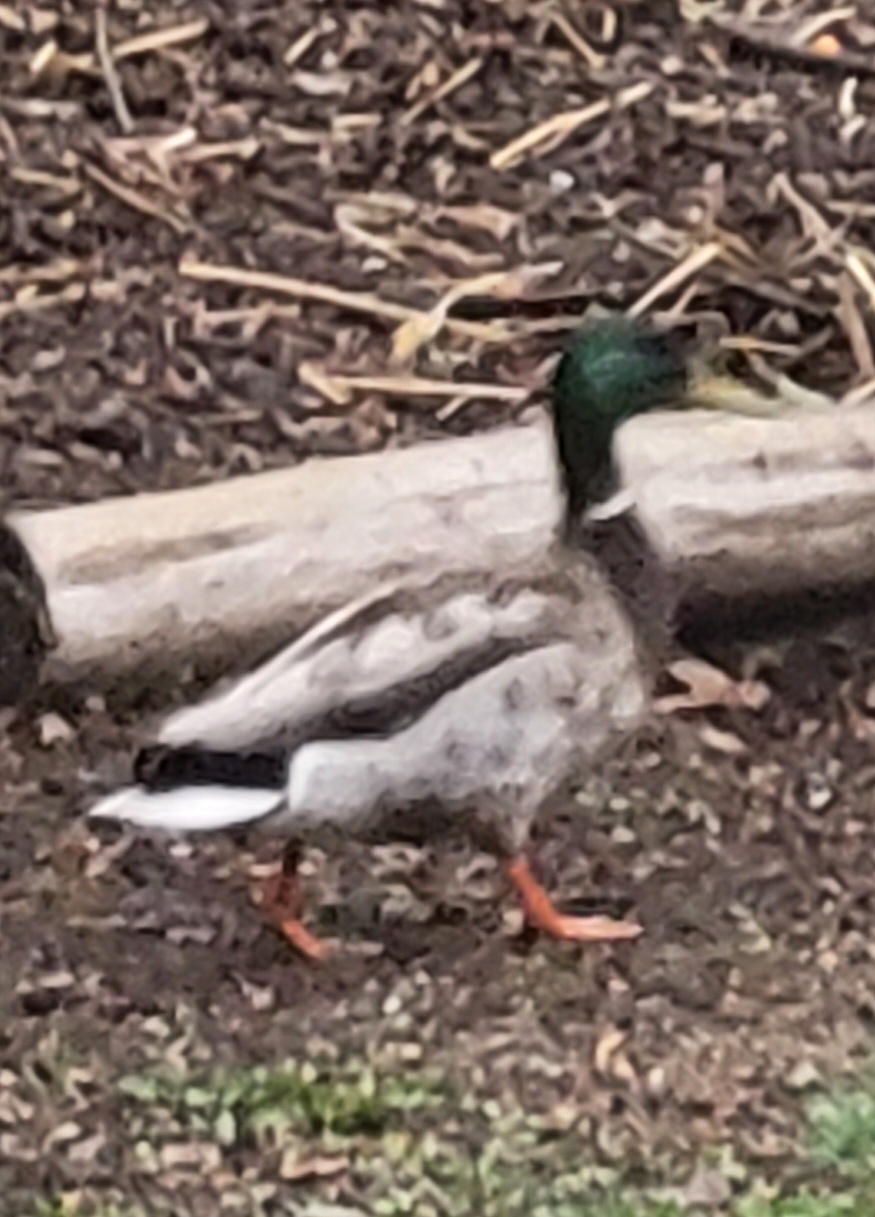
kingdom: Animalia
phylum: Chordata
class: Aves
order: Anseriformes
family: Anatidae
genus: Anas
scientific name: Anas platyrhynchos
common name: Mallard
